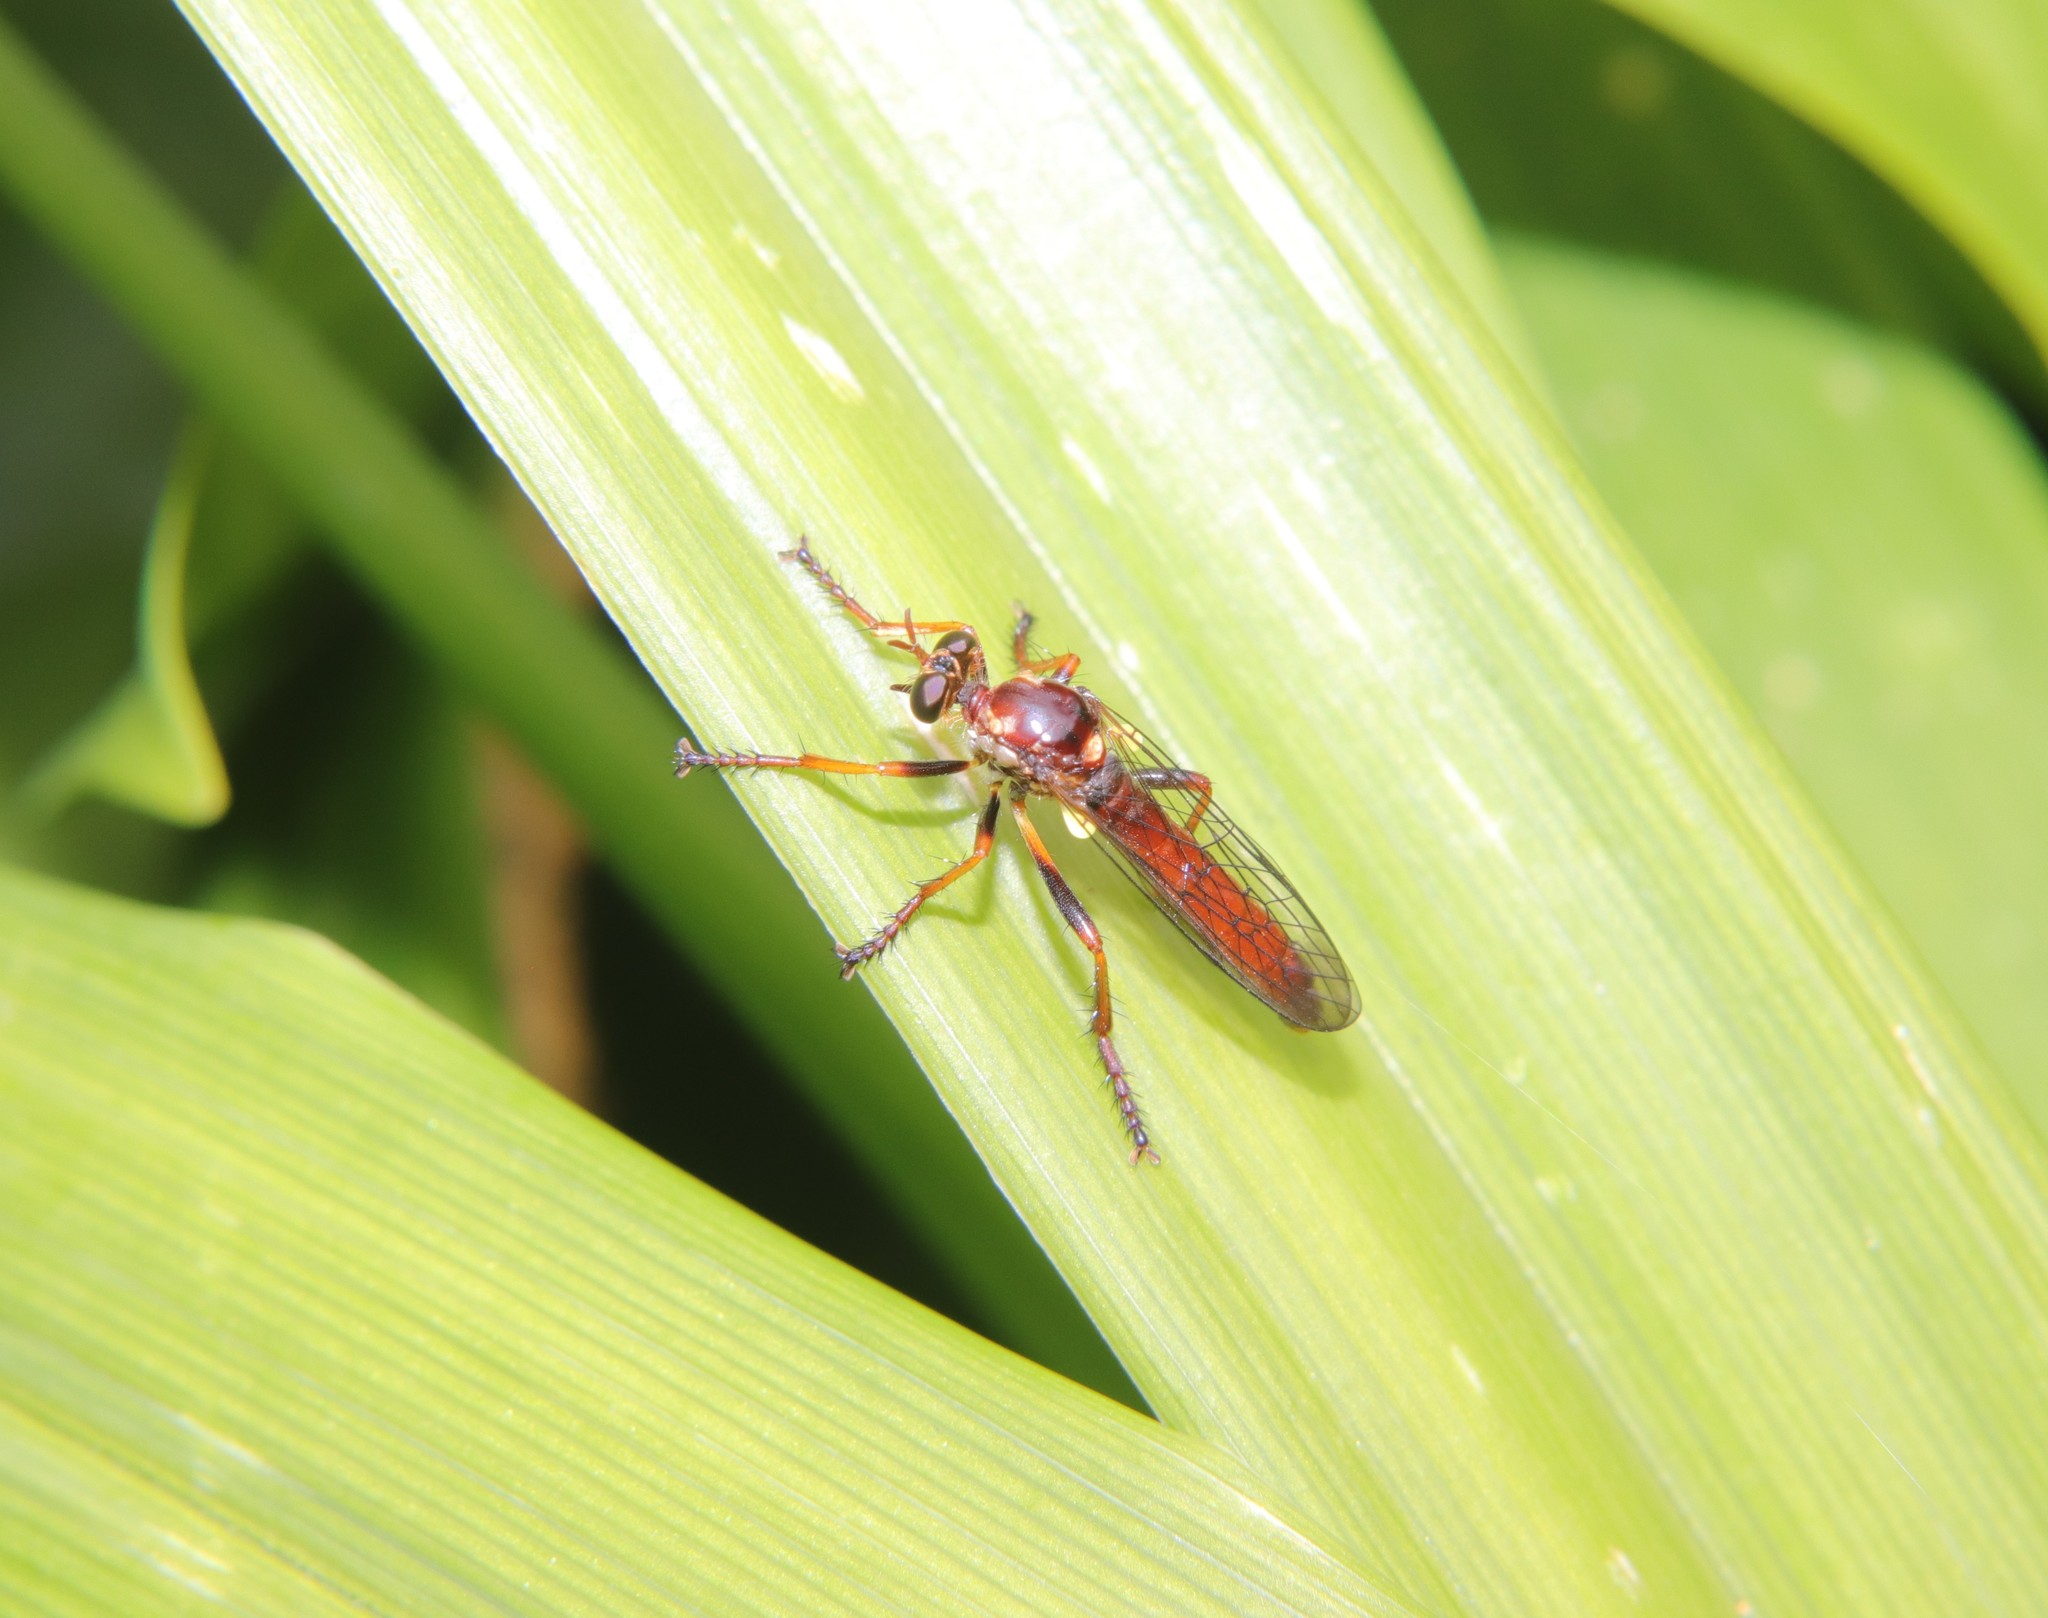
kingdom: Animalia
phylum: Arthropoda
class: Insecta
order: Diptera
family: Asilidae
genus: Saropogon
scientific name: Saropogon antipodus
